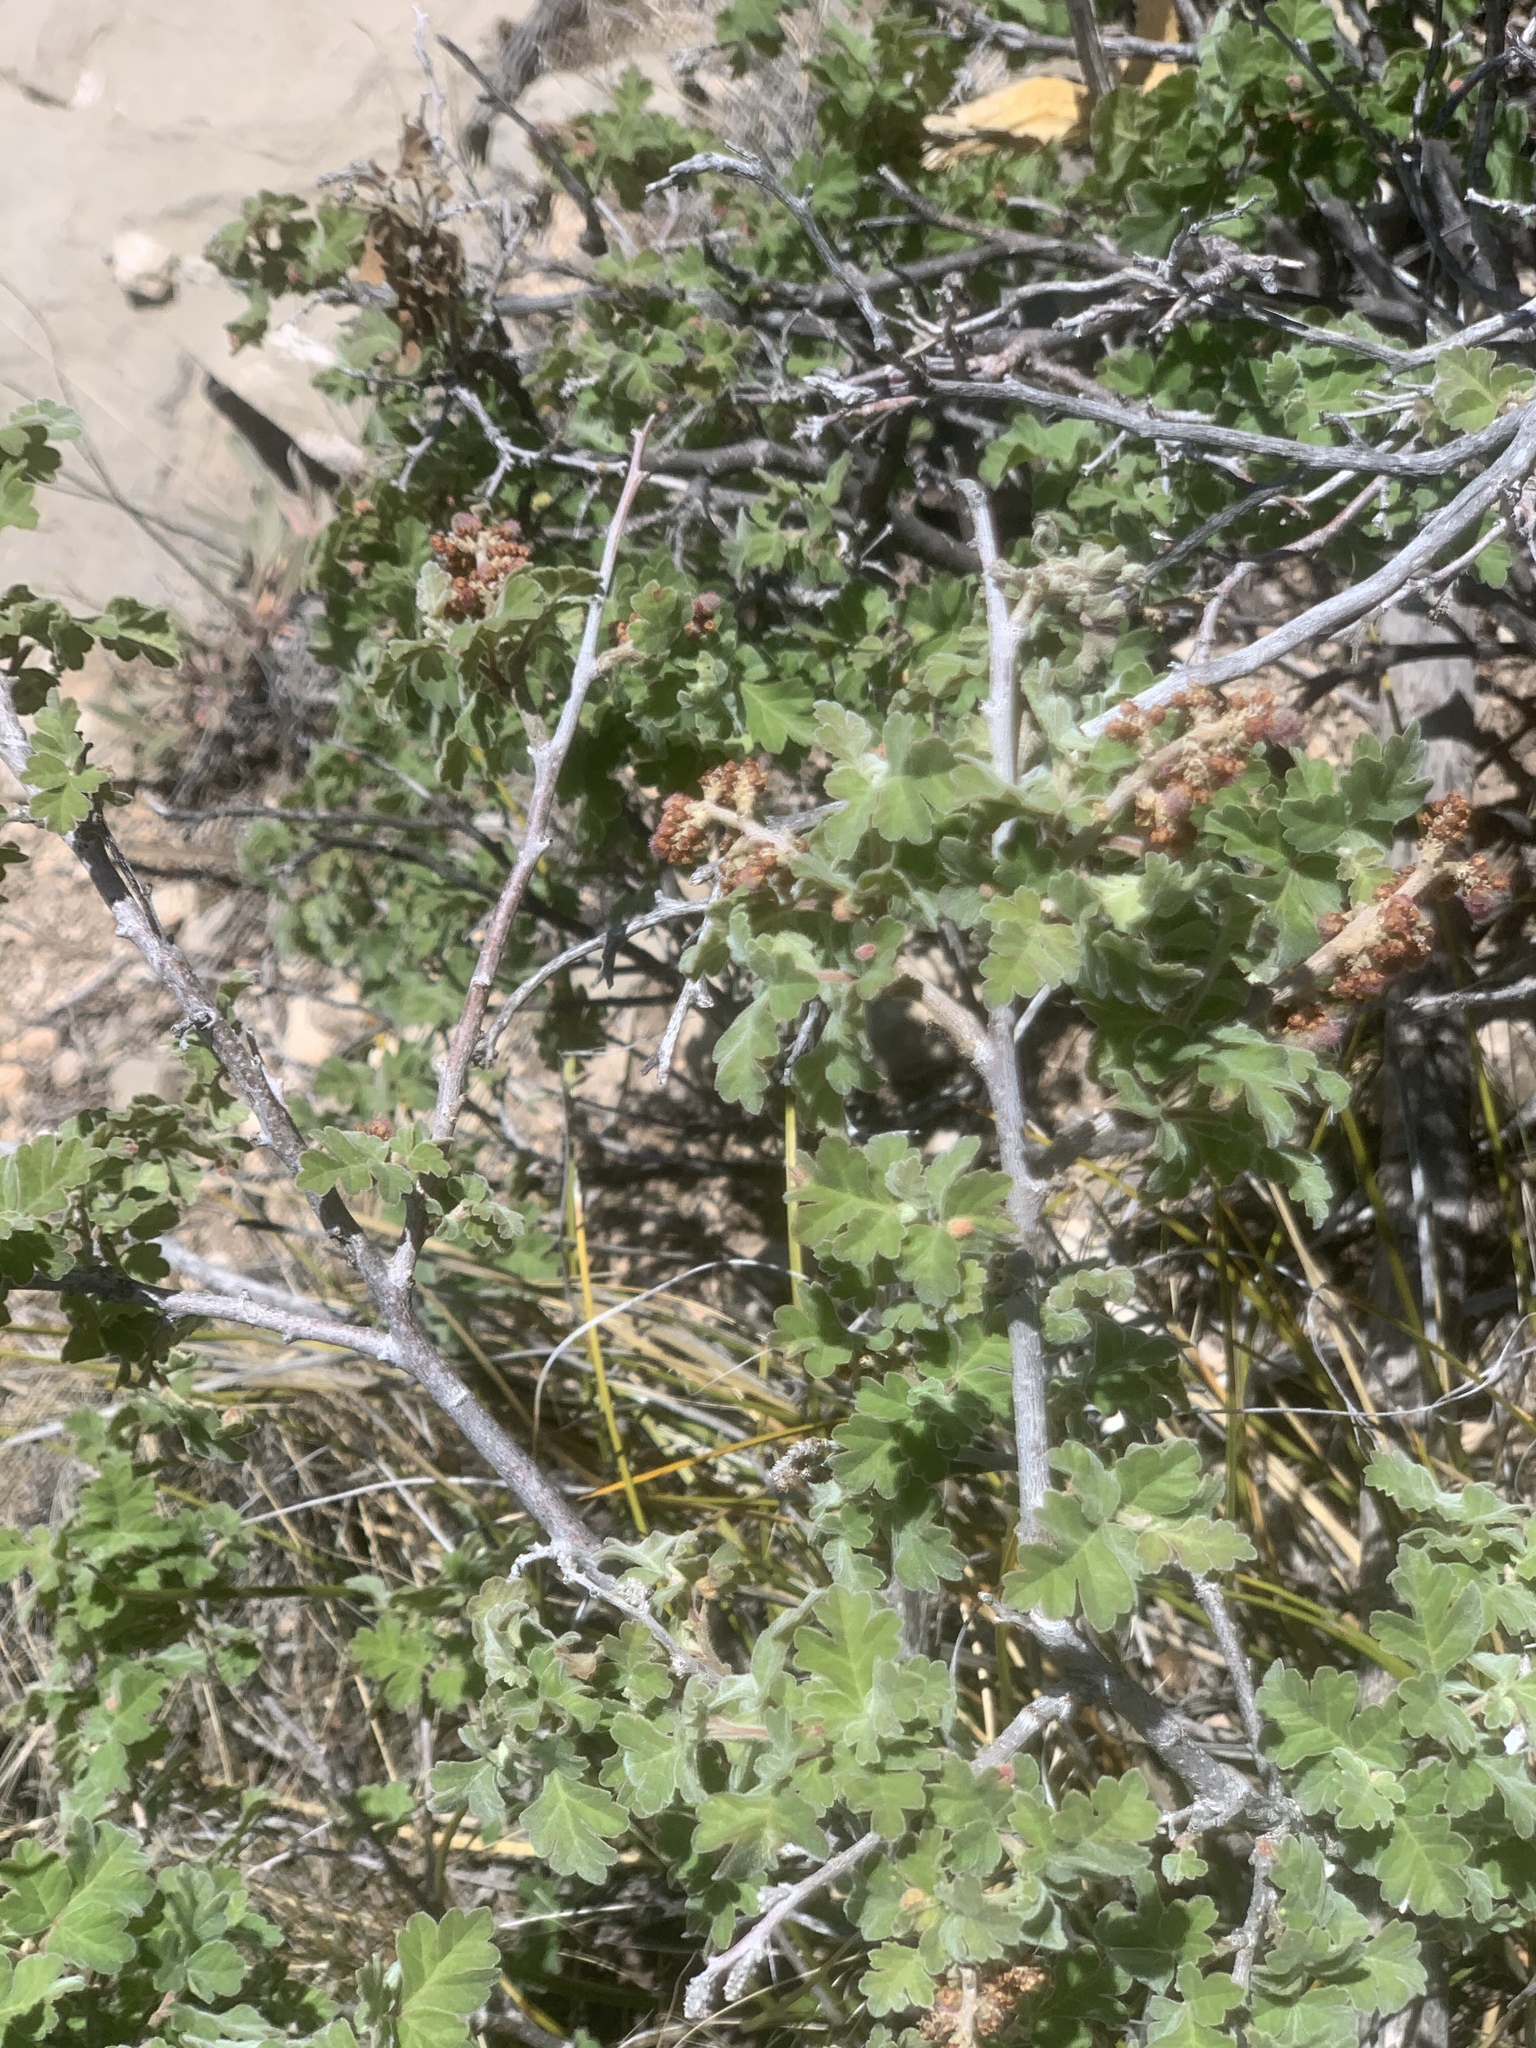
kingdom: Plantae
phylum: Tracheophyta
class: Magnoliopsida
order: Sapindales
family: Anacardiaceae
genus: Rhus
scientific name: Rhus aromatica
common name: Aromatic sumac
